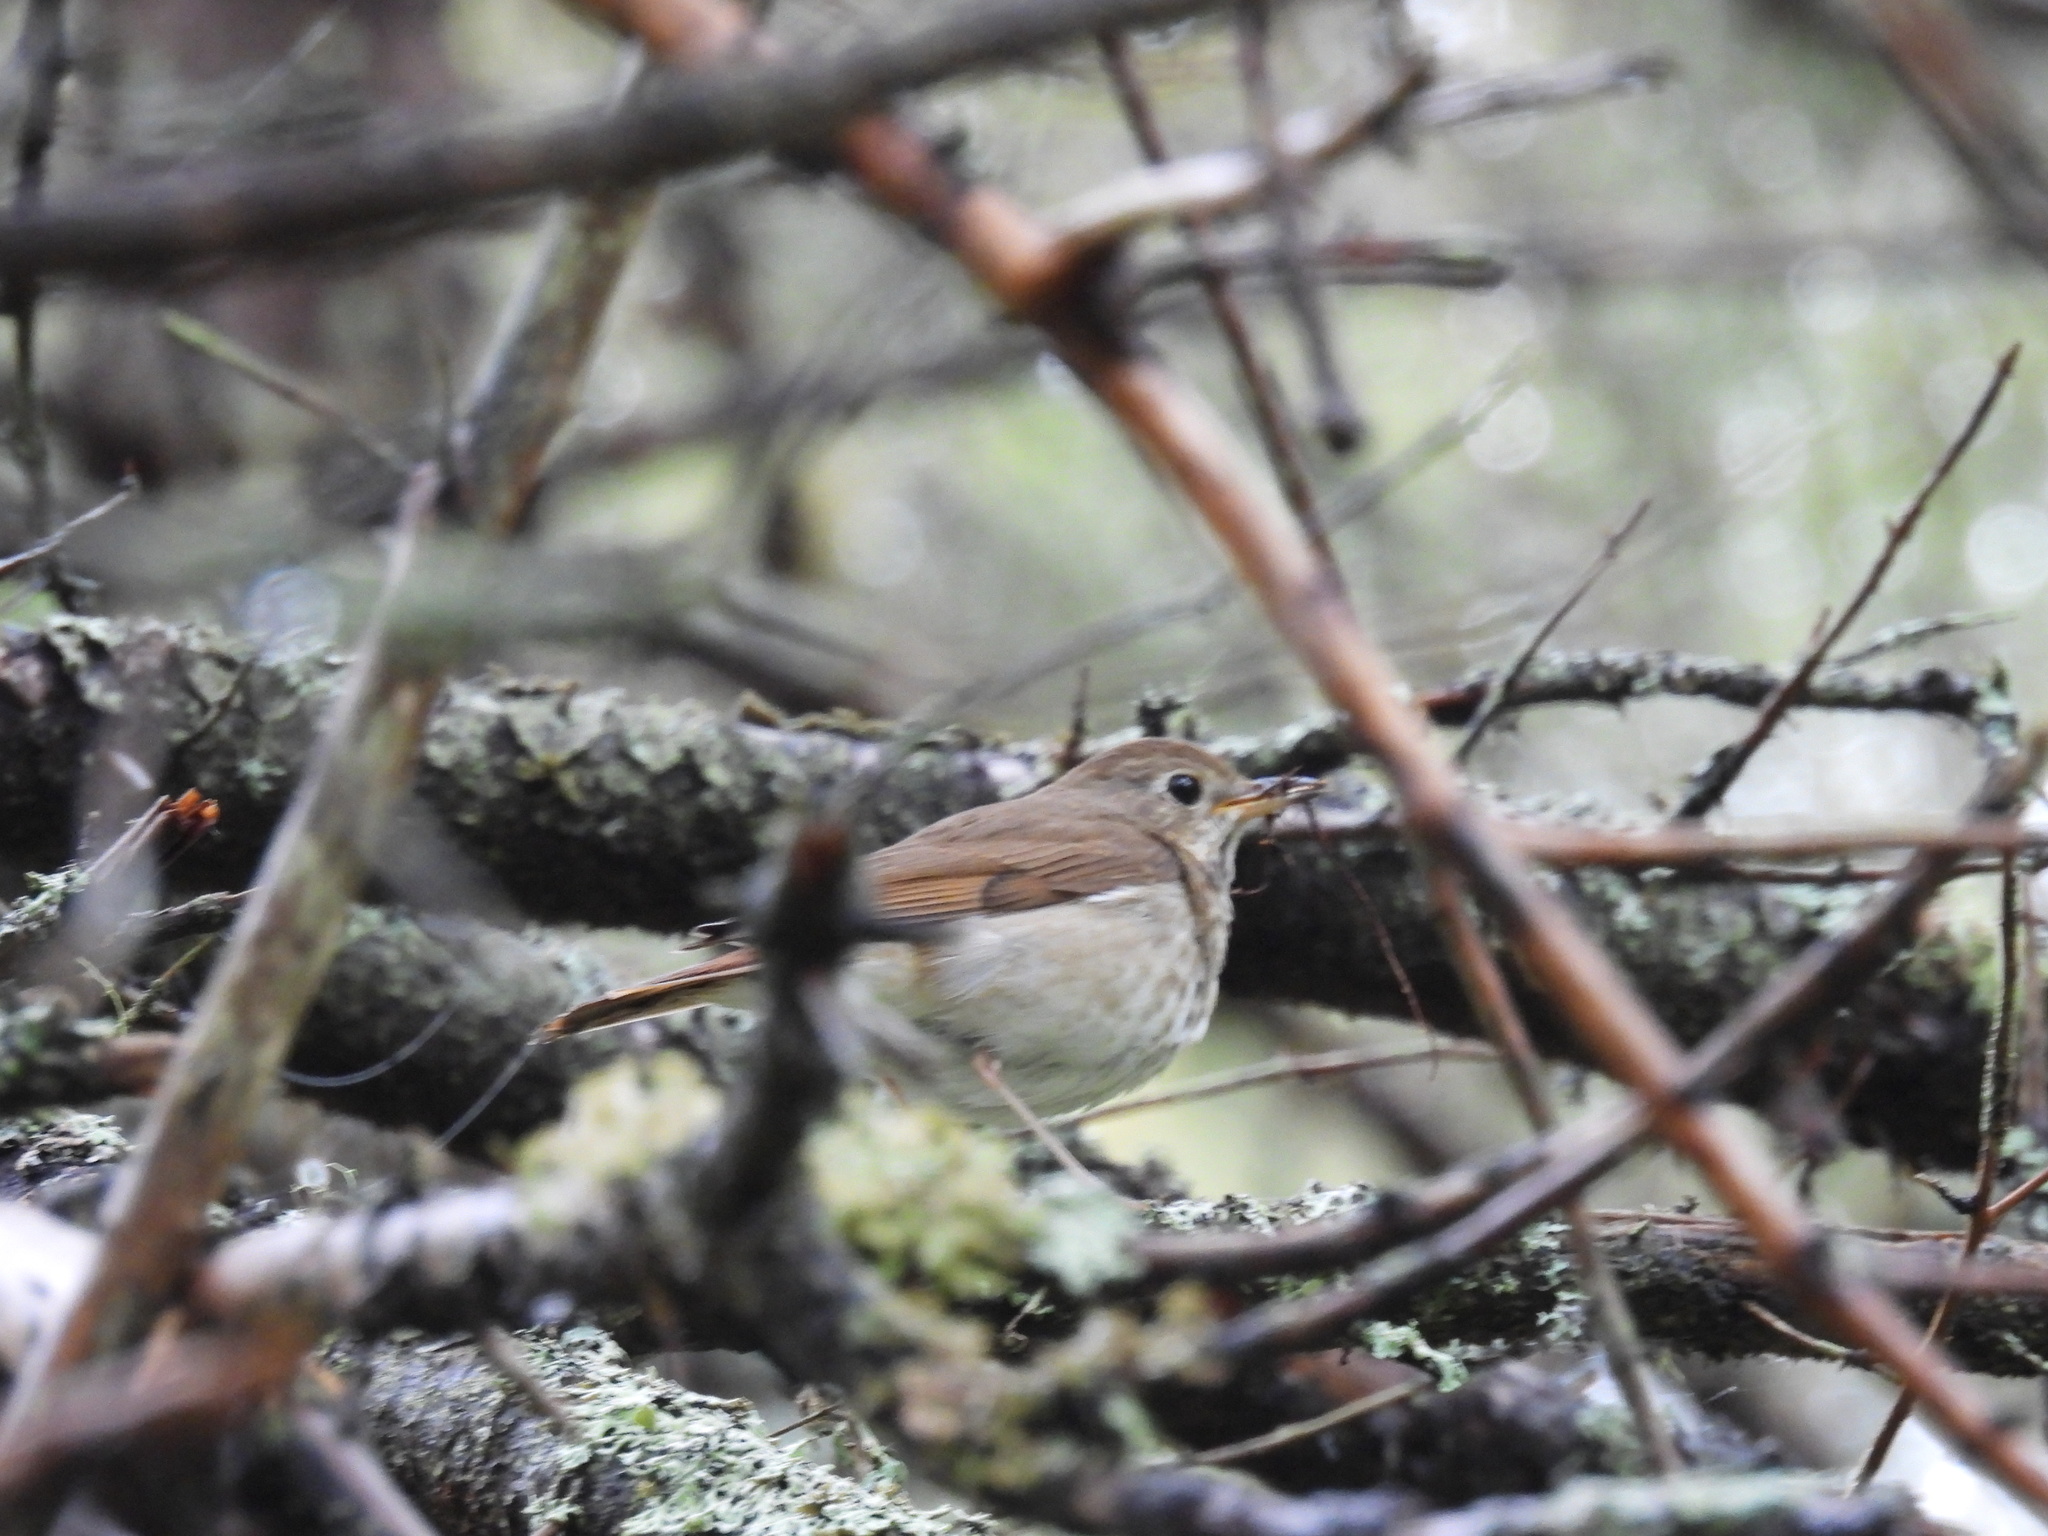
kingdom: Animalia
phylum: Chordata
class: Aves
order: Passeriformes
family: Turdidae
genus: Catharus
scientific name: Catharus guttatus
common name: Hermit thrush
